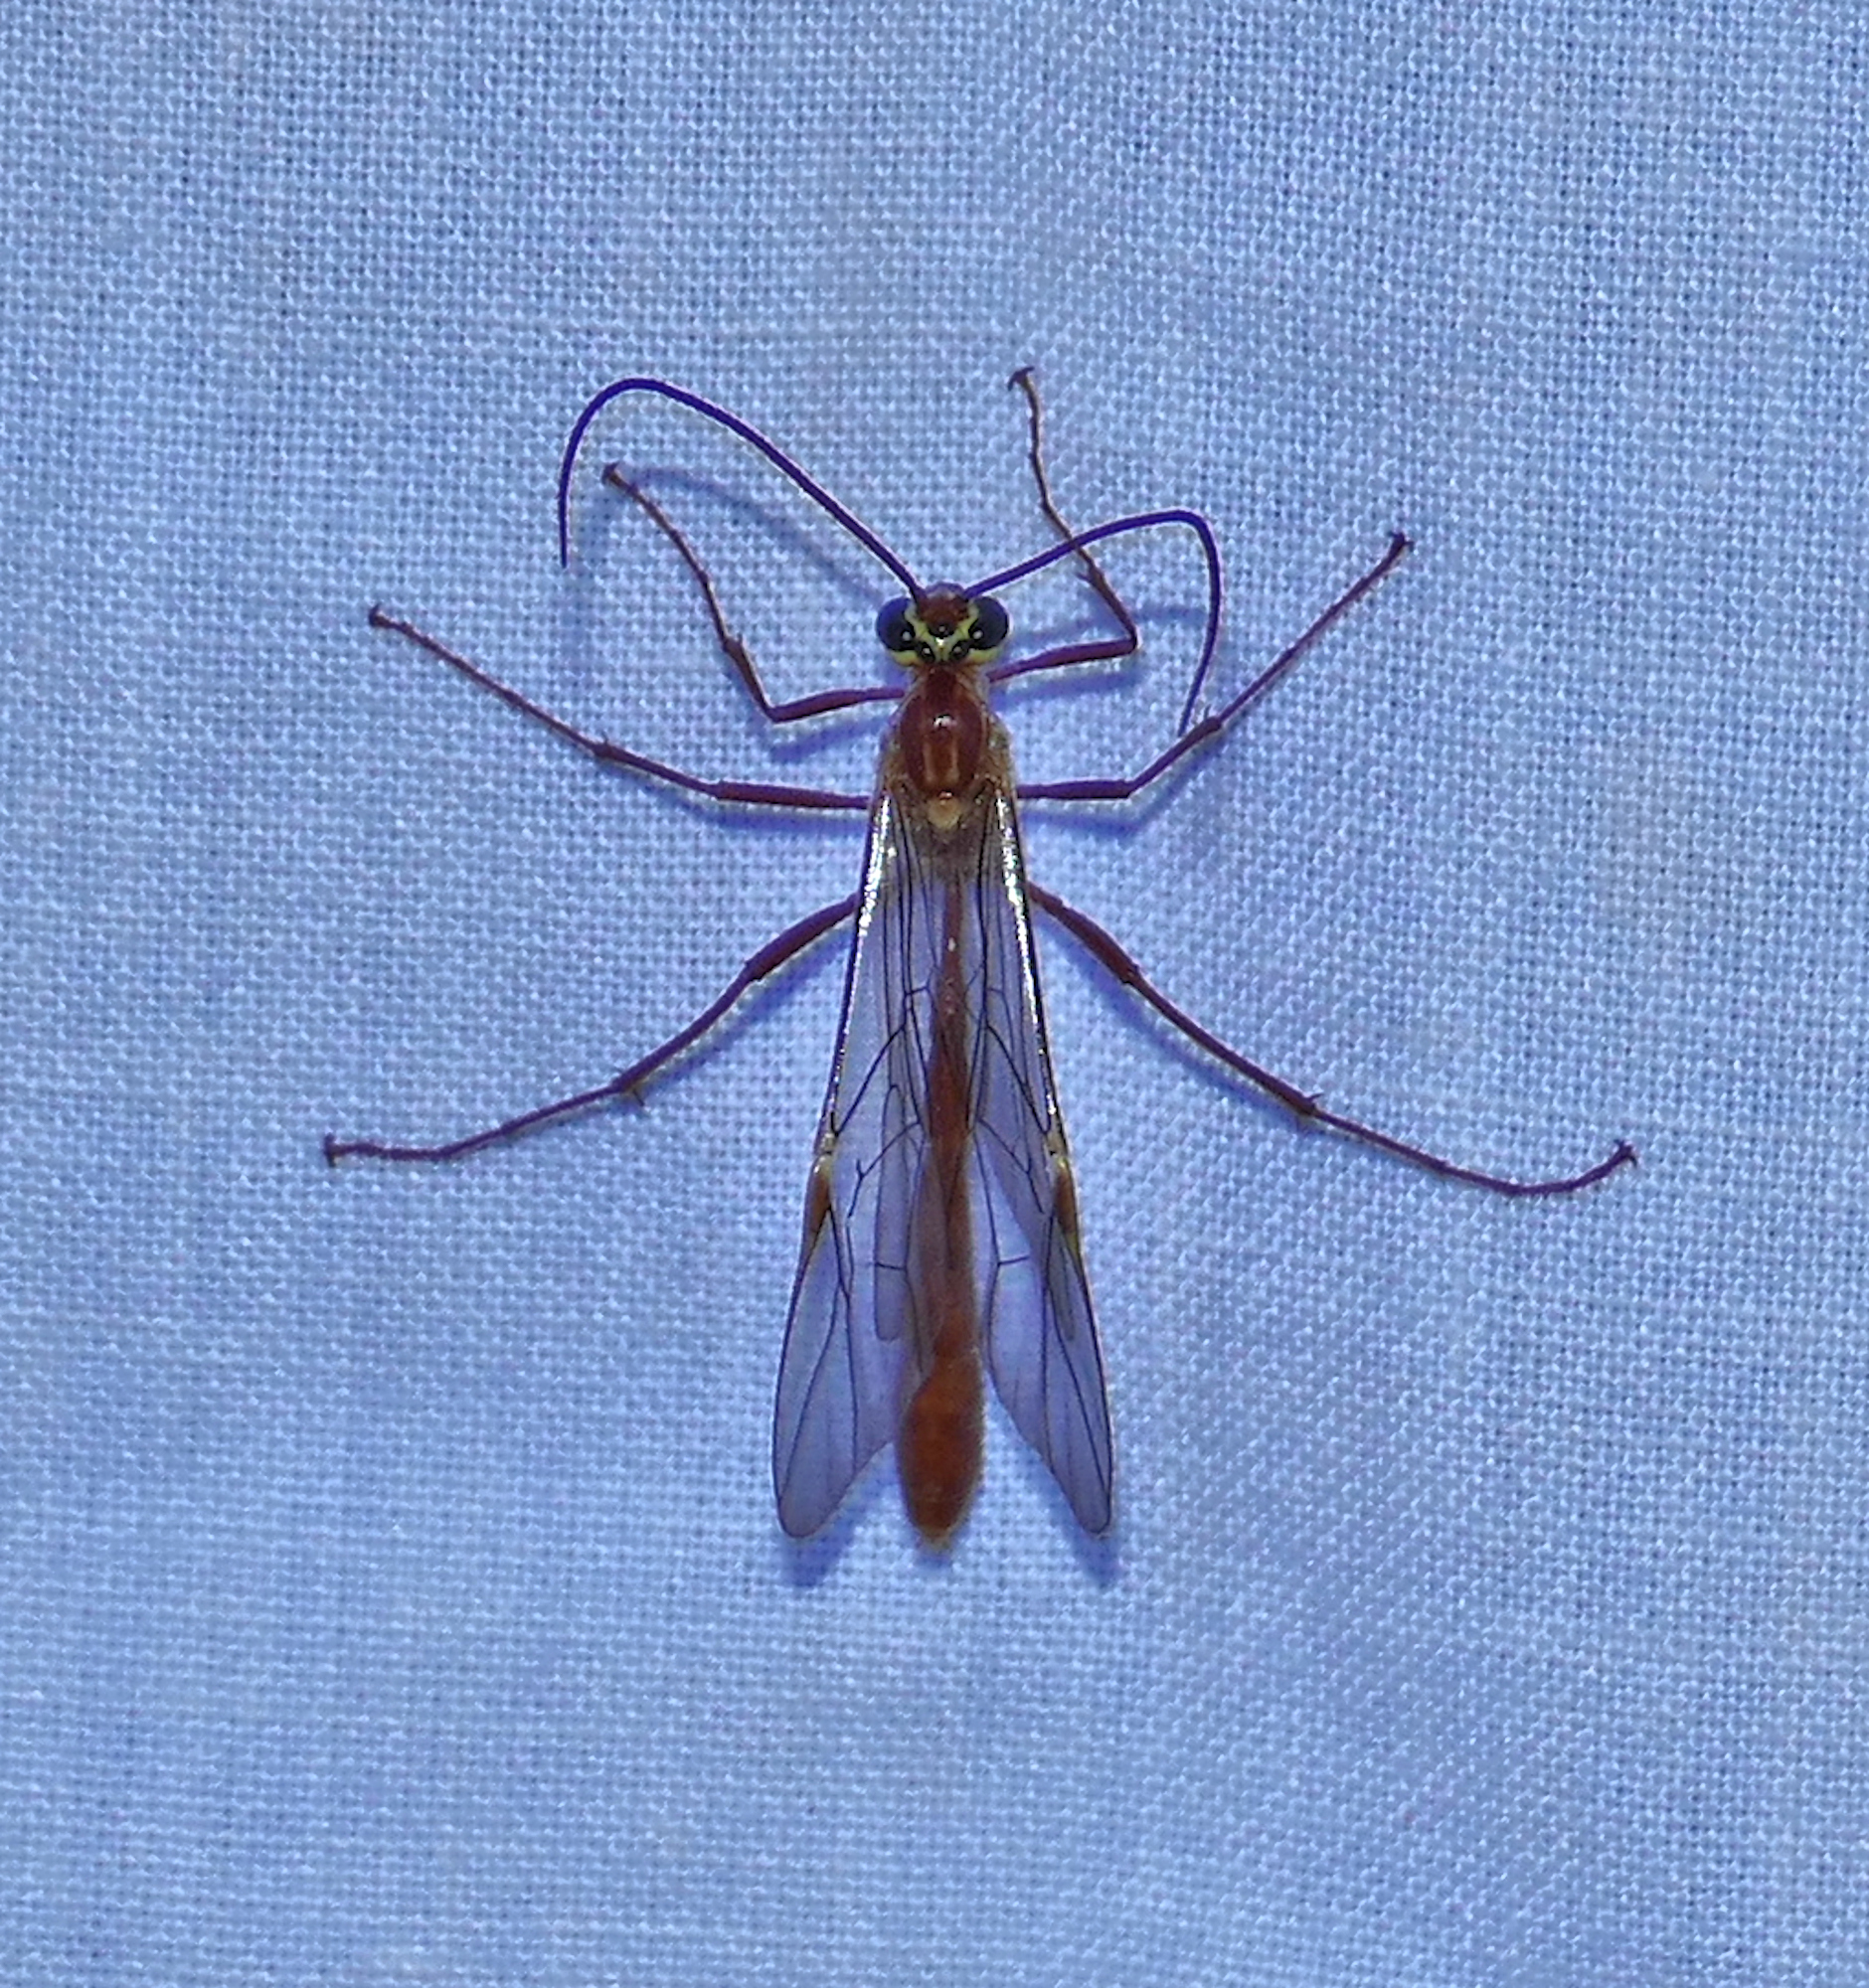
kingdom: Animalia
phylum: Arthropoda
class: Insecta
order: Hymenoptera
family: Ichneumonidae
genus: Ophion
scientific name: Ophion
